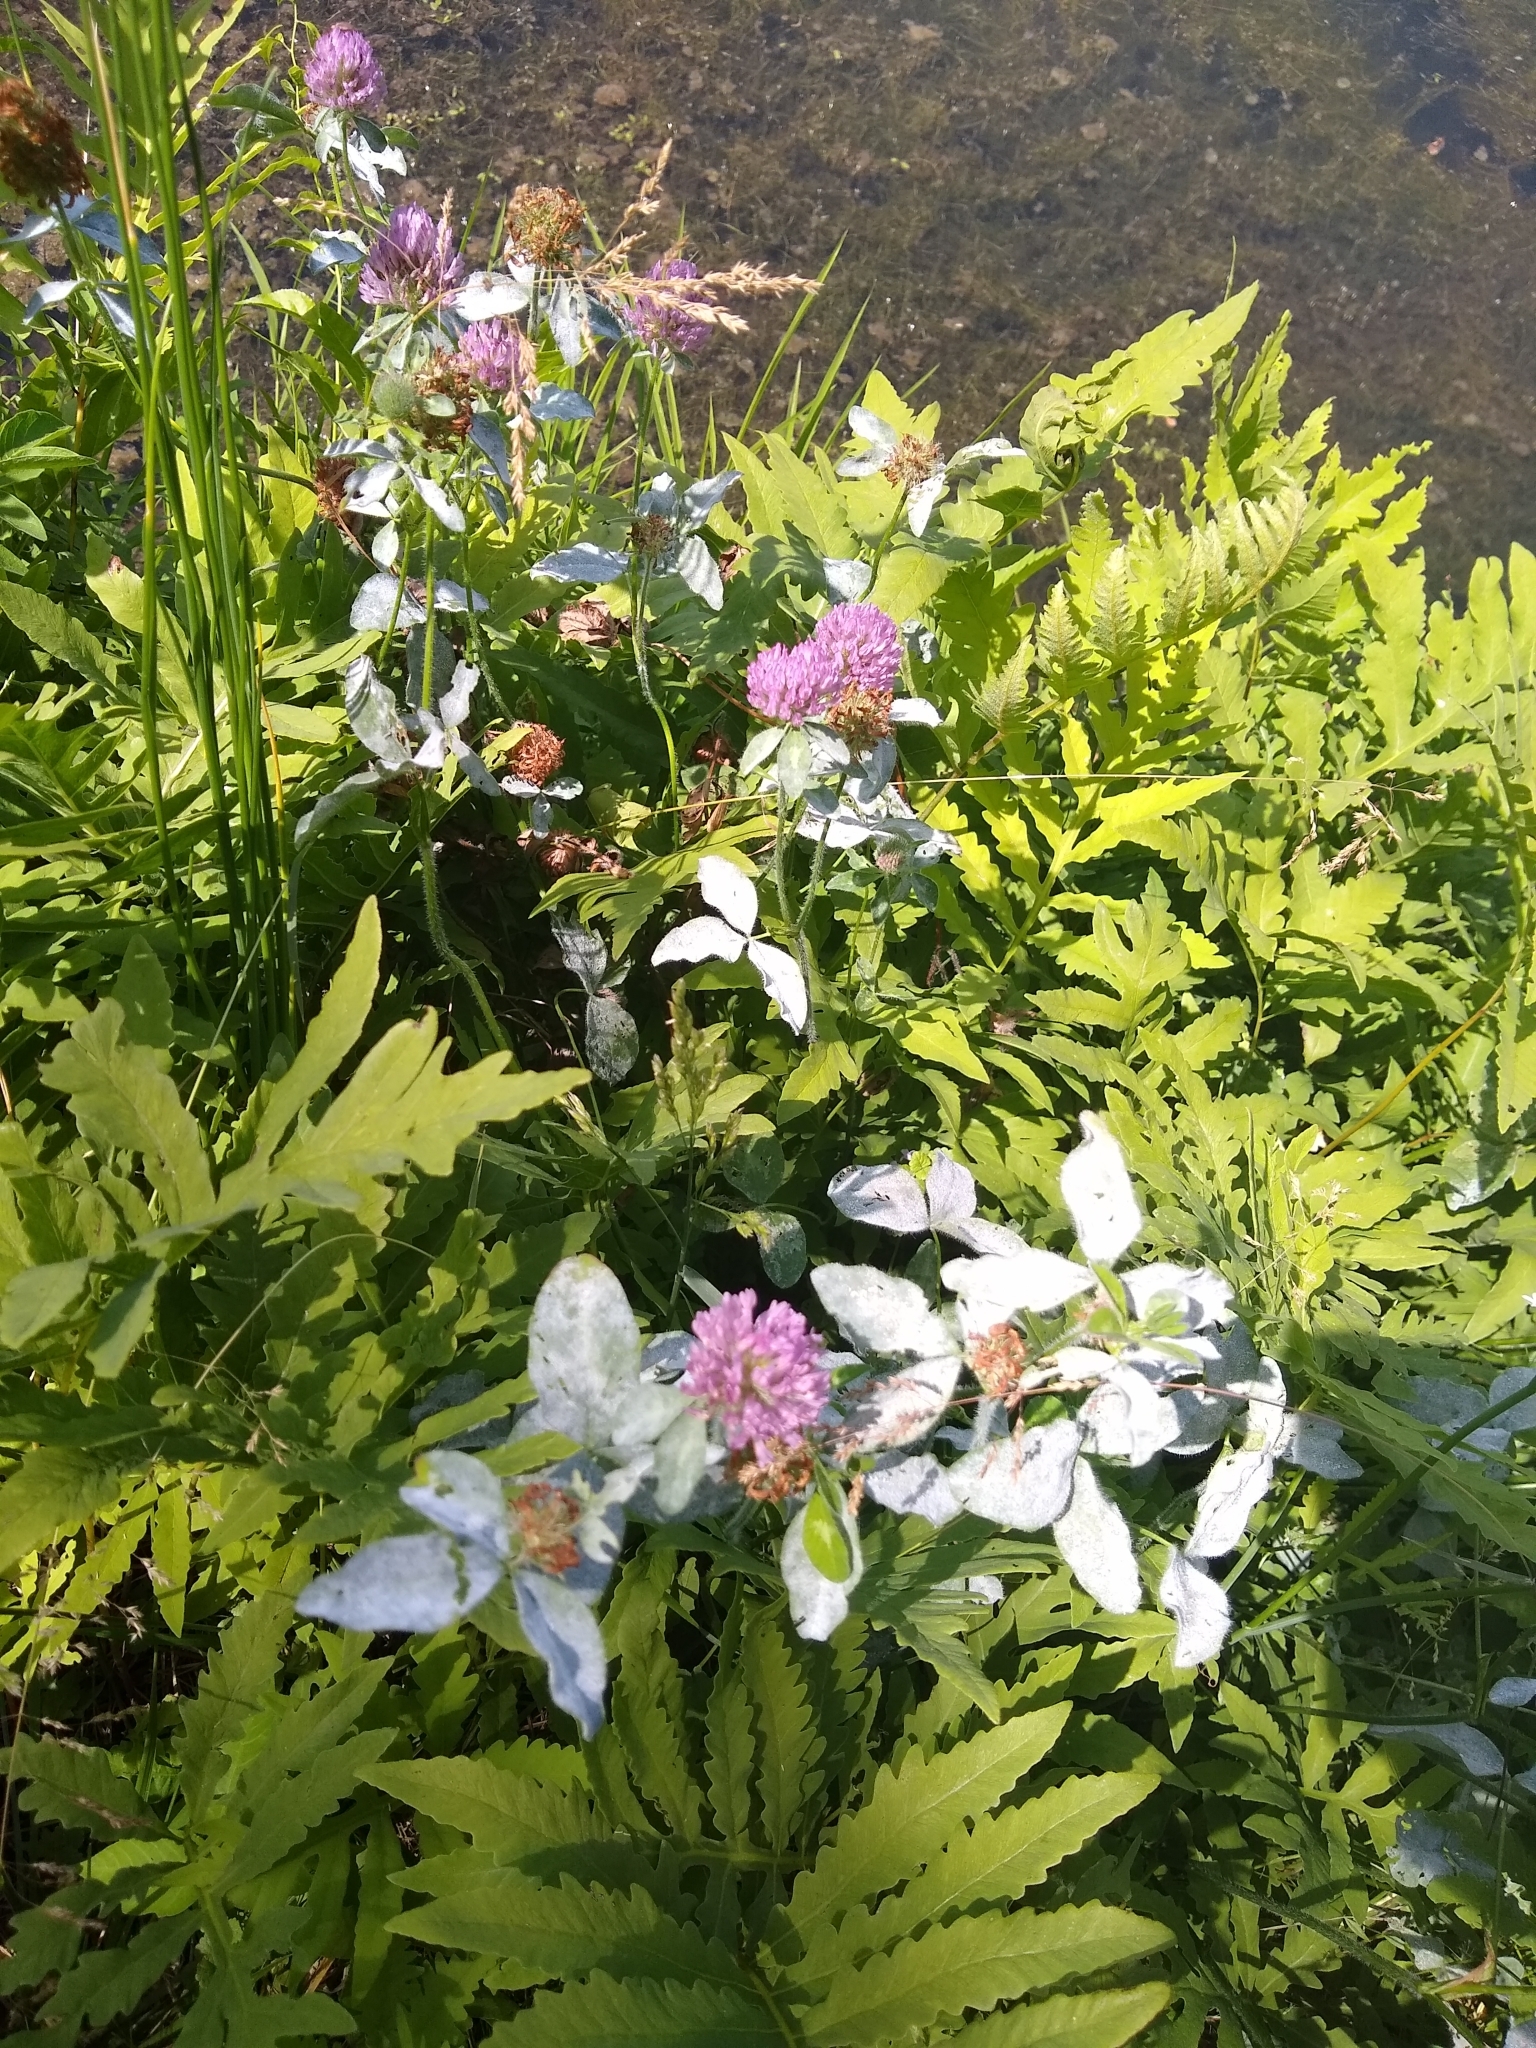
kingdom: Plantae
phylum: Tracheophyta
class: Magnoliopsida
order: Fabales
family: Fabaceae
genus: Trifolium
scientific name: Trifolium pratense
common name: Red clover
